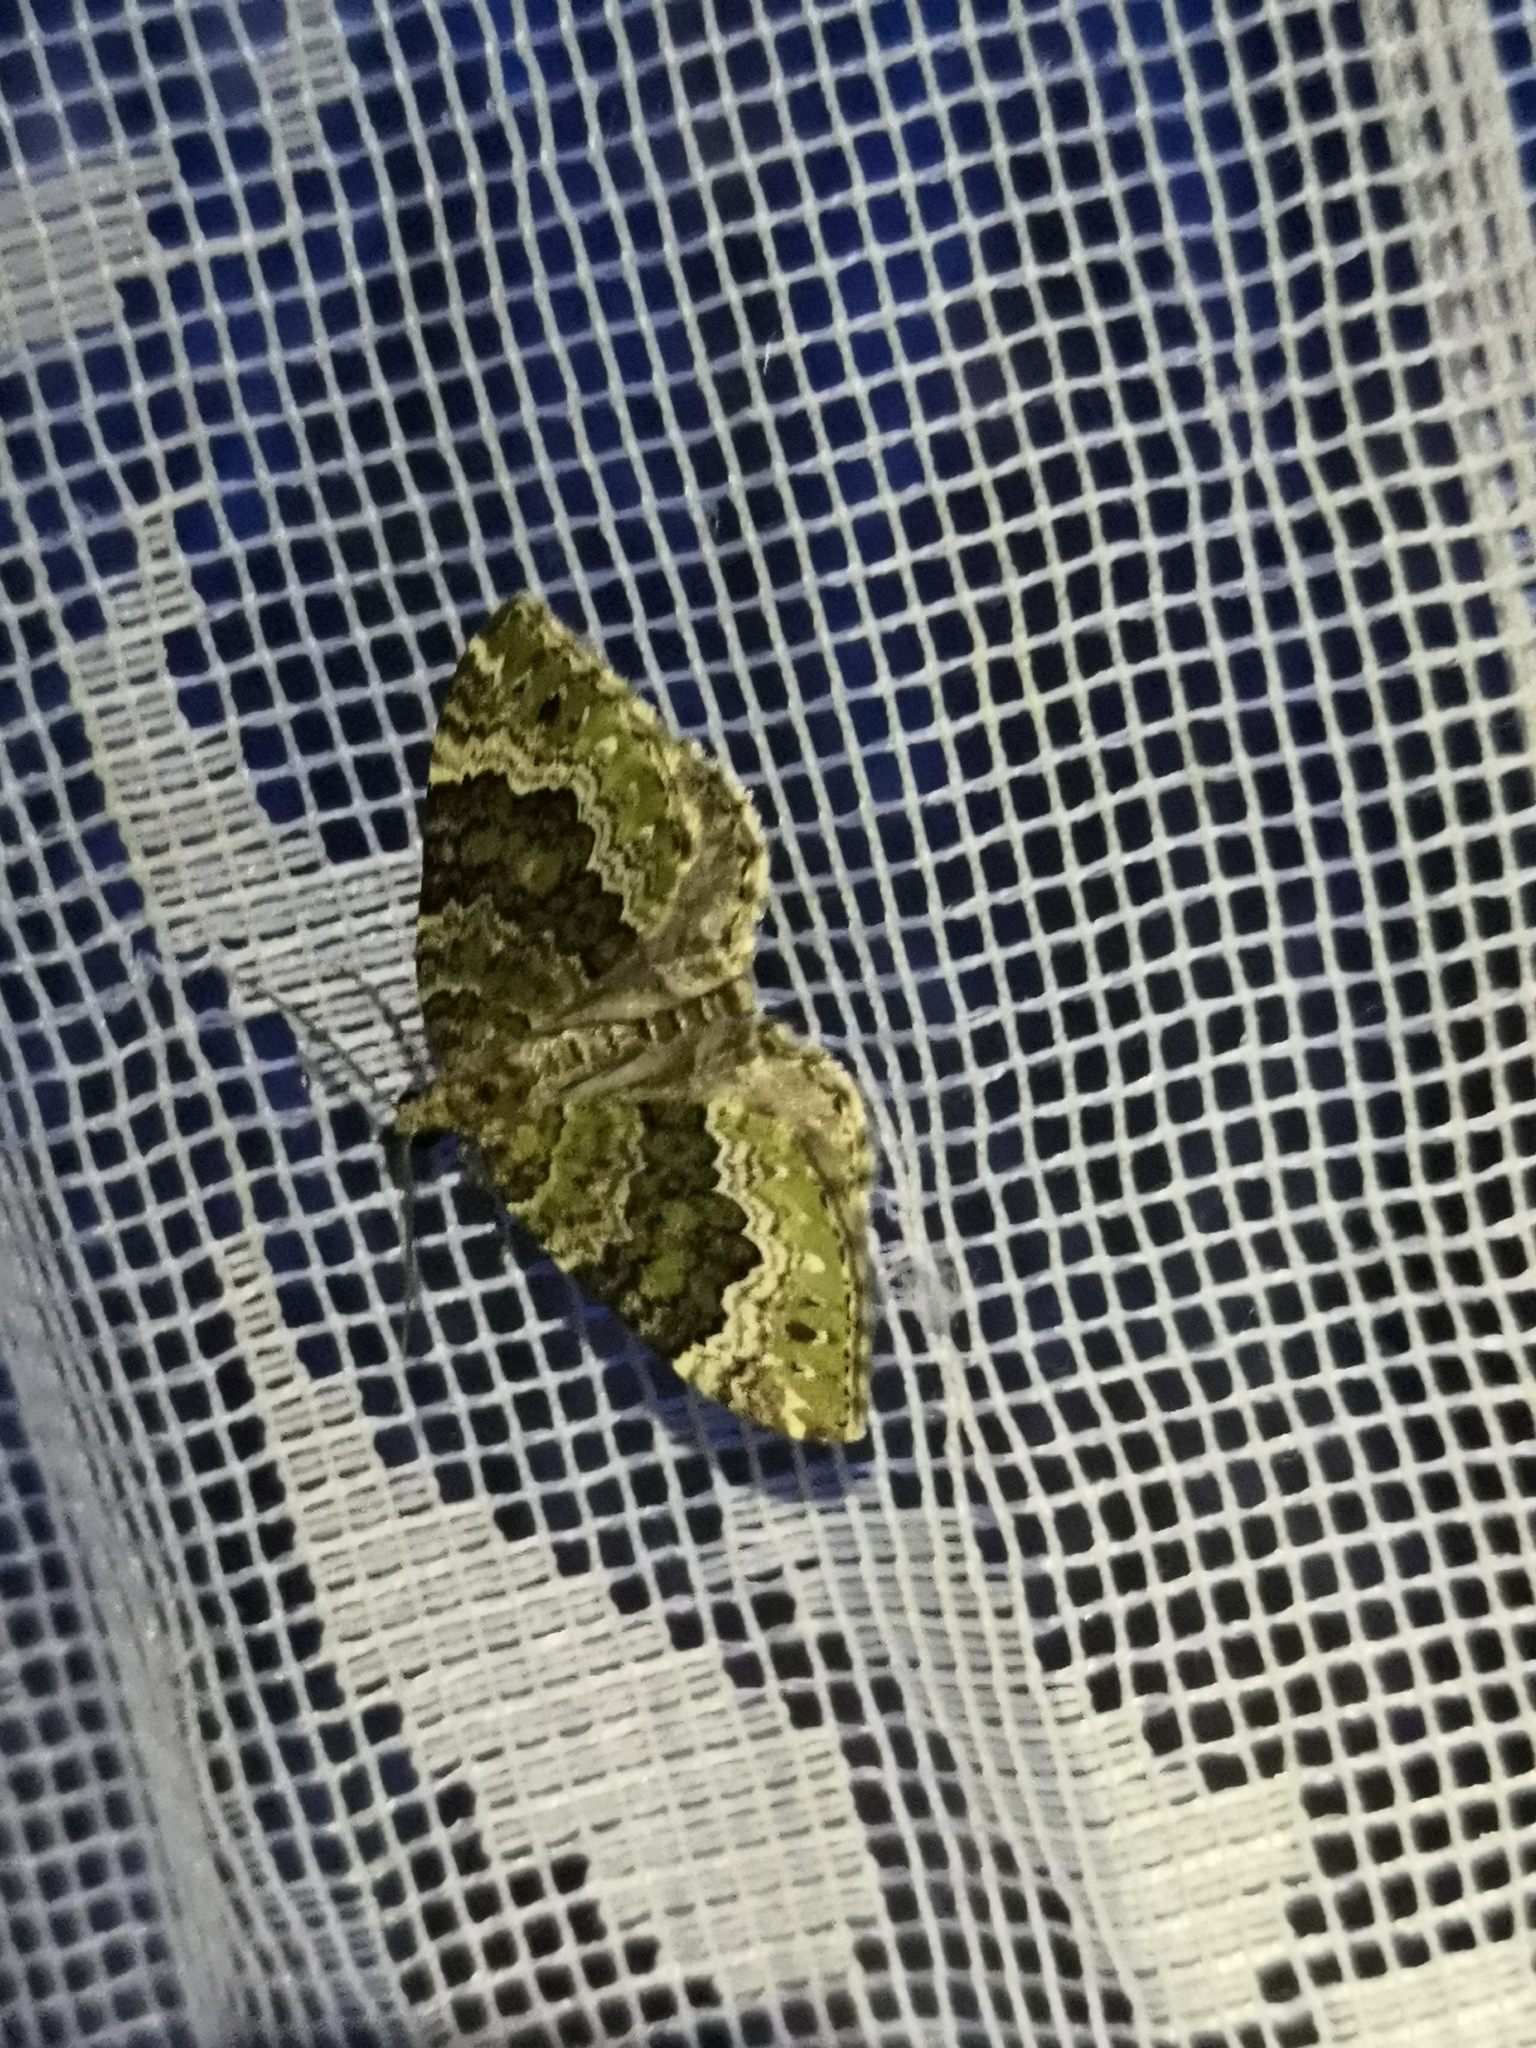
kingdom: Animalia
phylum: Arthropoda
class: Insecta
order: Lepidoptera
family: Geometridae
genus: Colostygia
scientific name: Colostygia olivata
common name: Beech-green carpet
